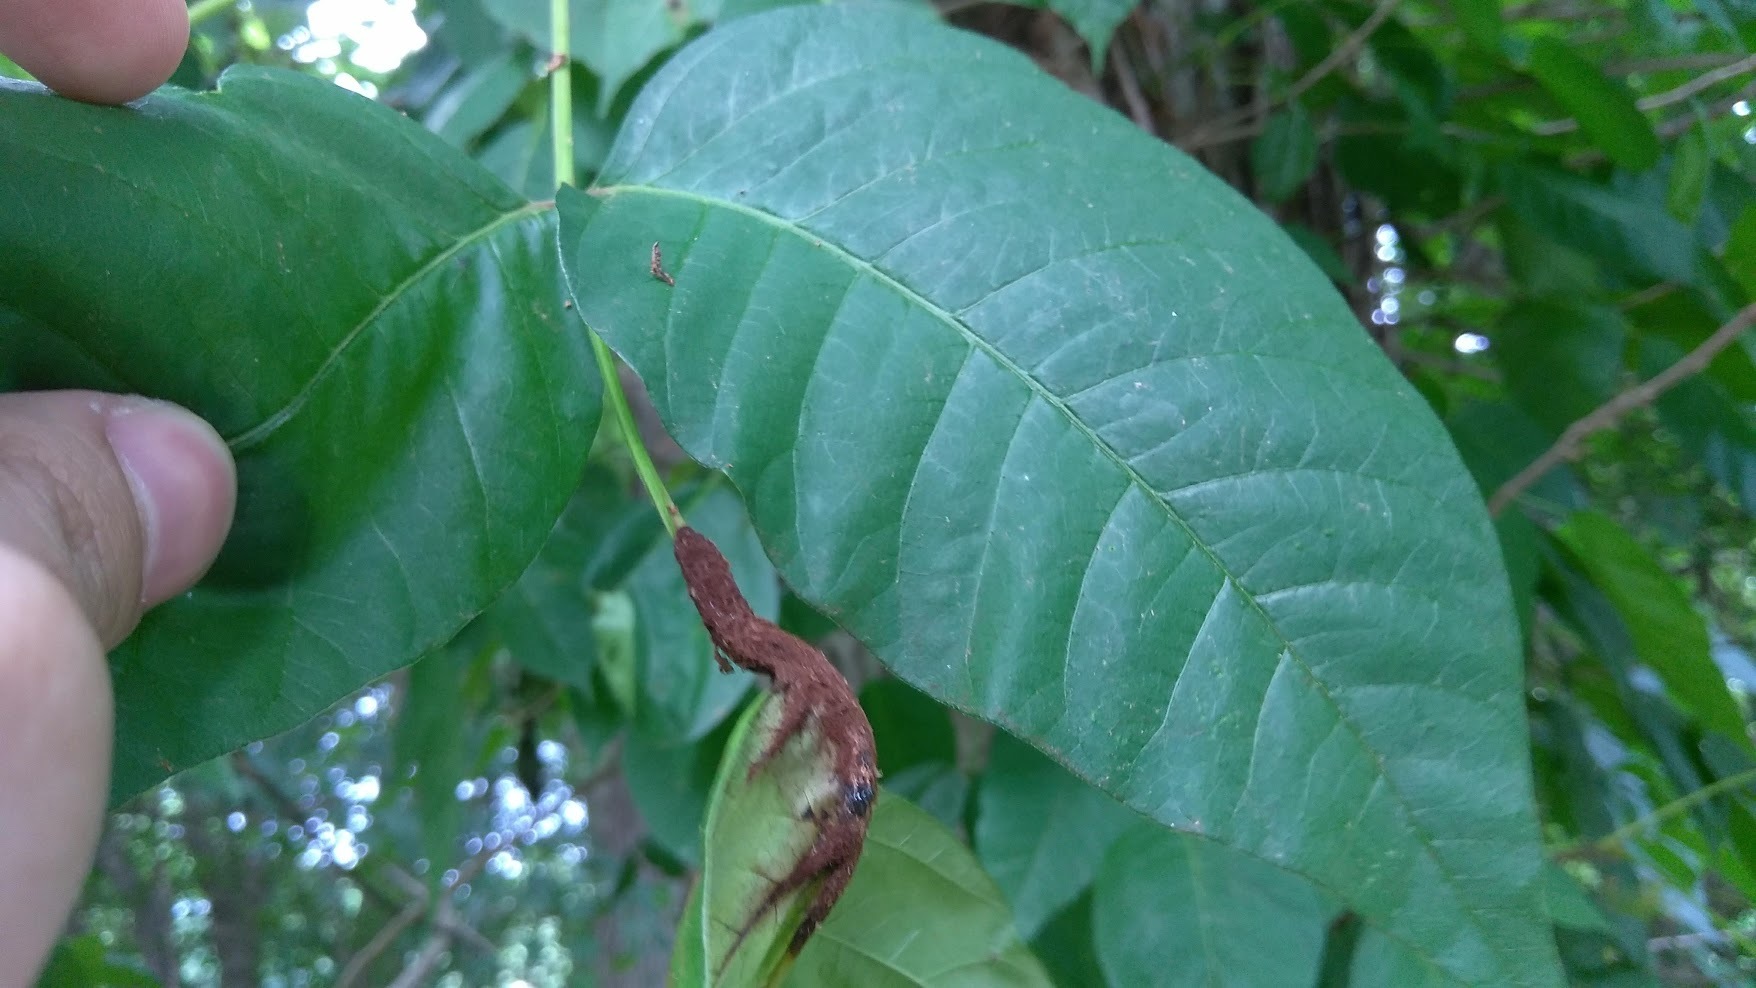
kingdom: Fungi
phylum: Basidiomycota
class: Pucciniomycetes
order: Pucciniales
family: Pileolariaceae
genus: Pileolaria
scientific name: Pileolaria brevipes
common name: Poison ivy rust
